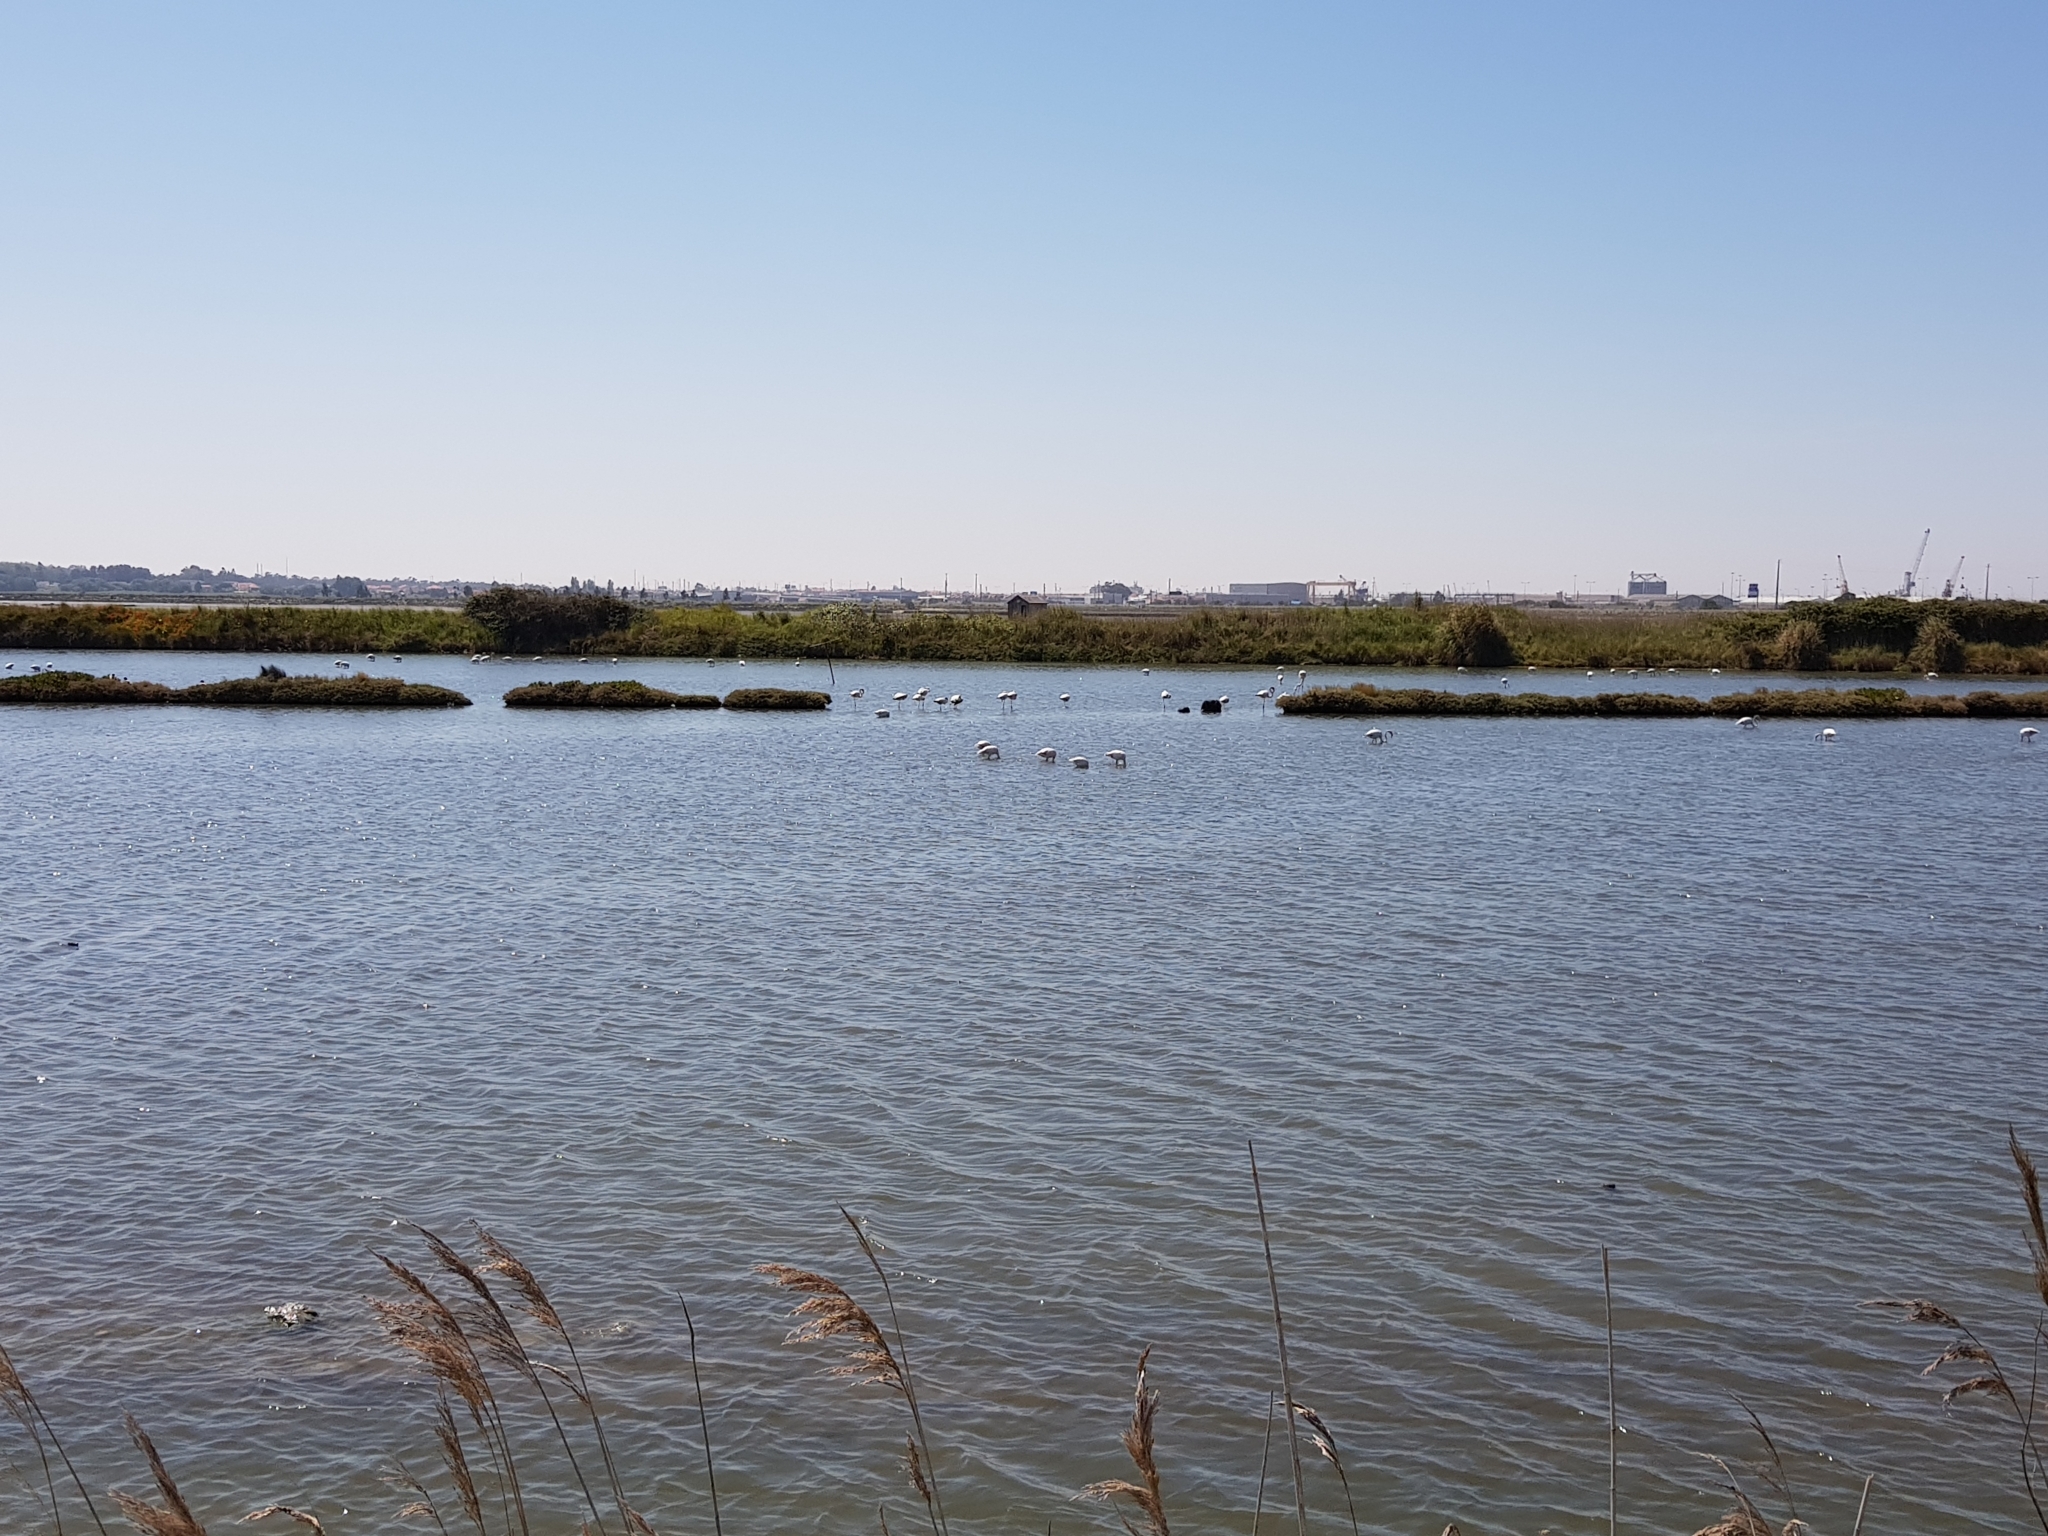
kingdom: Animalia
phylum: Chordata
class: Aves
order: Phoenicopteriformes
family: Phoenicopteridae
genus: Phoenicopterus
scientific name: Phoenicopterus roseus
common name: Greater flamingo
